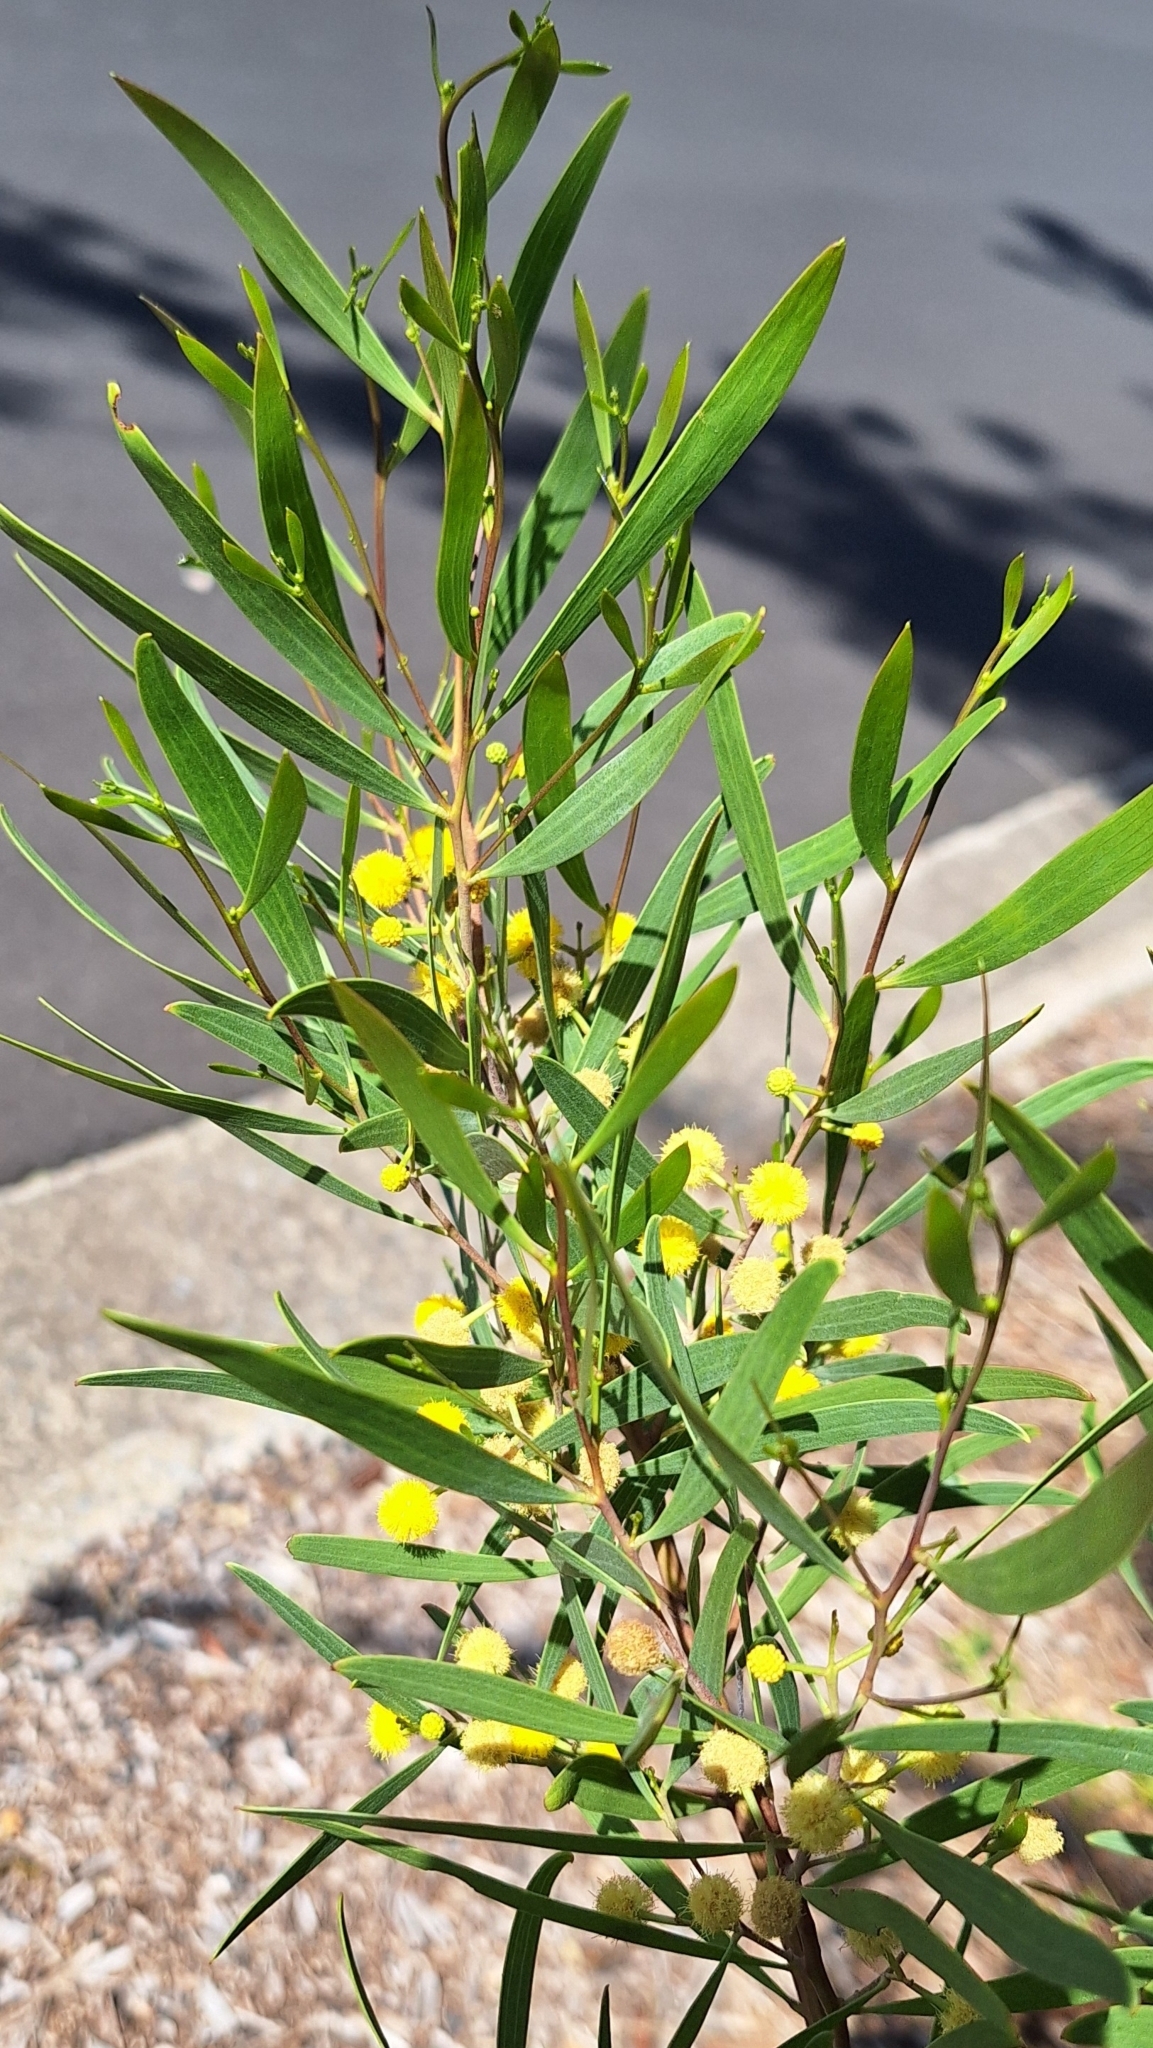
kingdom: Plantae
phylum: Tracheophyta
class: Magnoliopsida
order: Fabales
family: Fabaceae
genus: Acacia
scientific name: Acacia cyclops
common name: Coastal wattle
